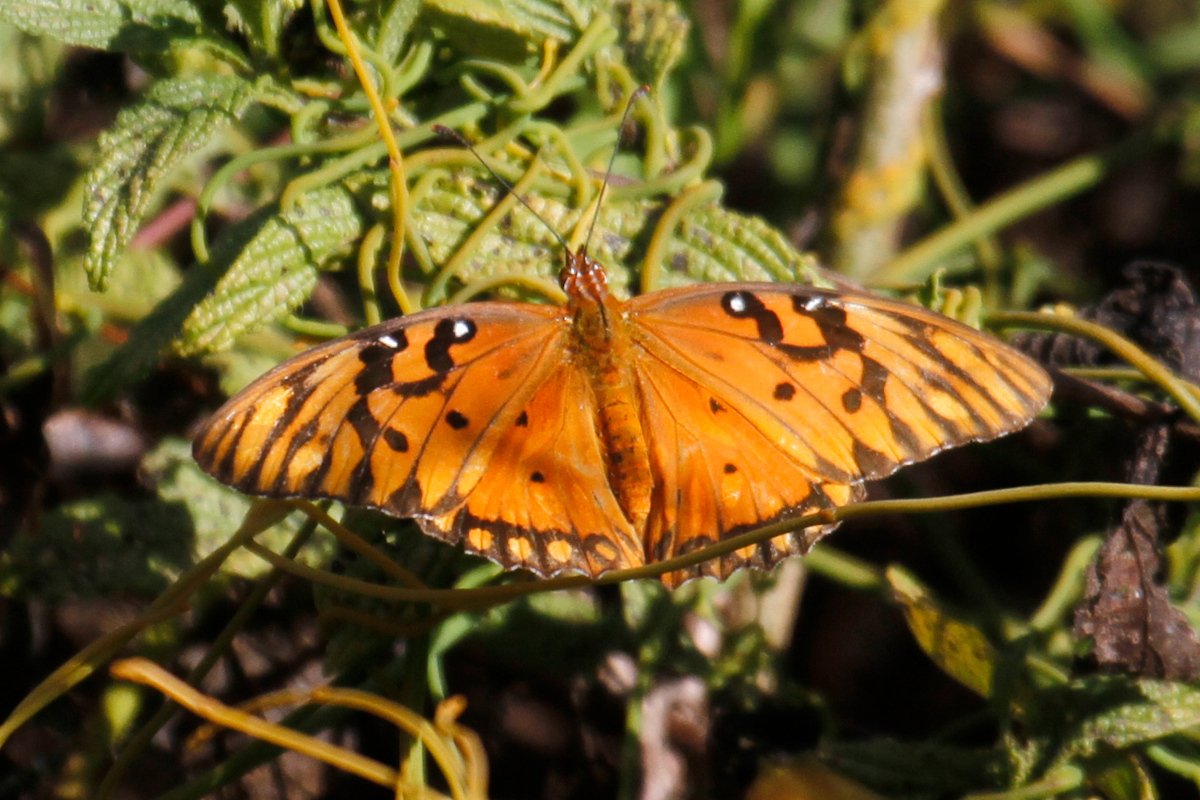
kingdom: Animalia
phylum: Arthropoda
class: Insecta
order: Lepidoptera
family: Nymphalidae
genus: Dione
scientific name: Dione vanillae
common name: Gulf fritillary
